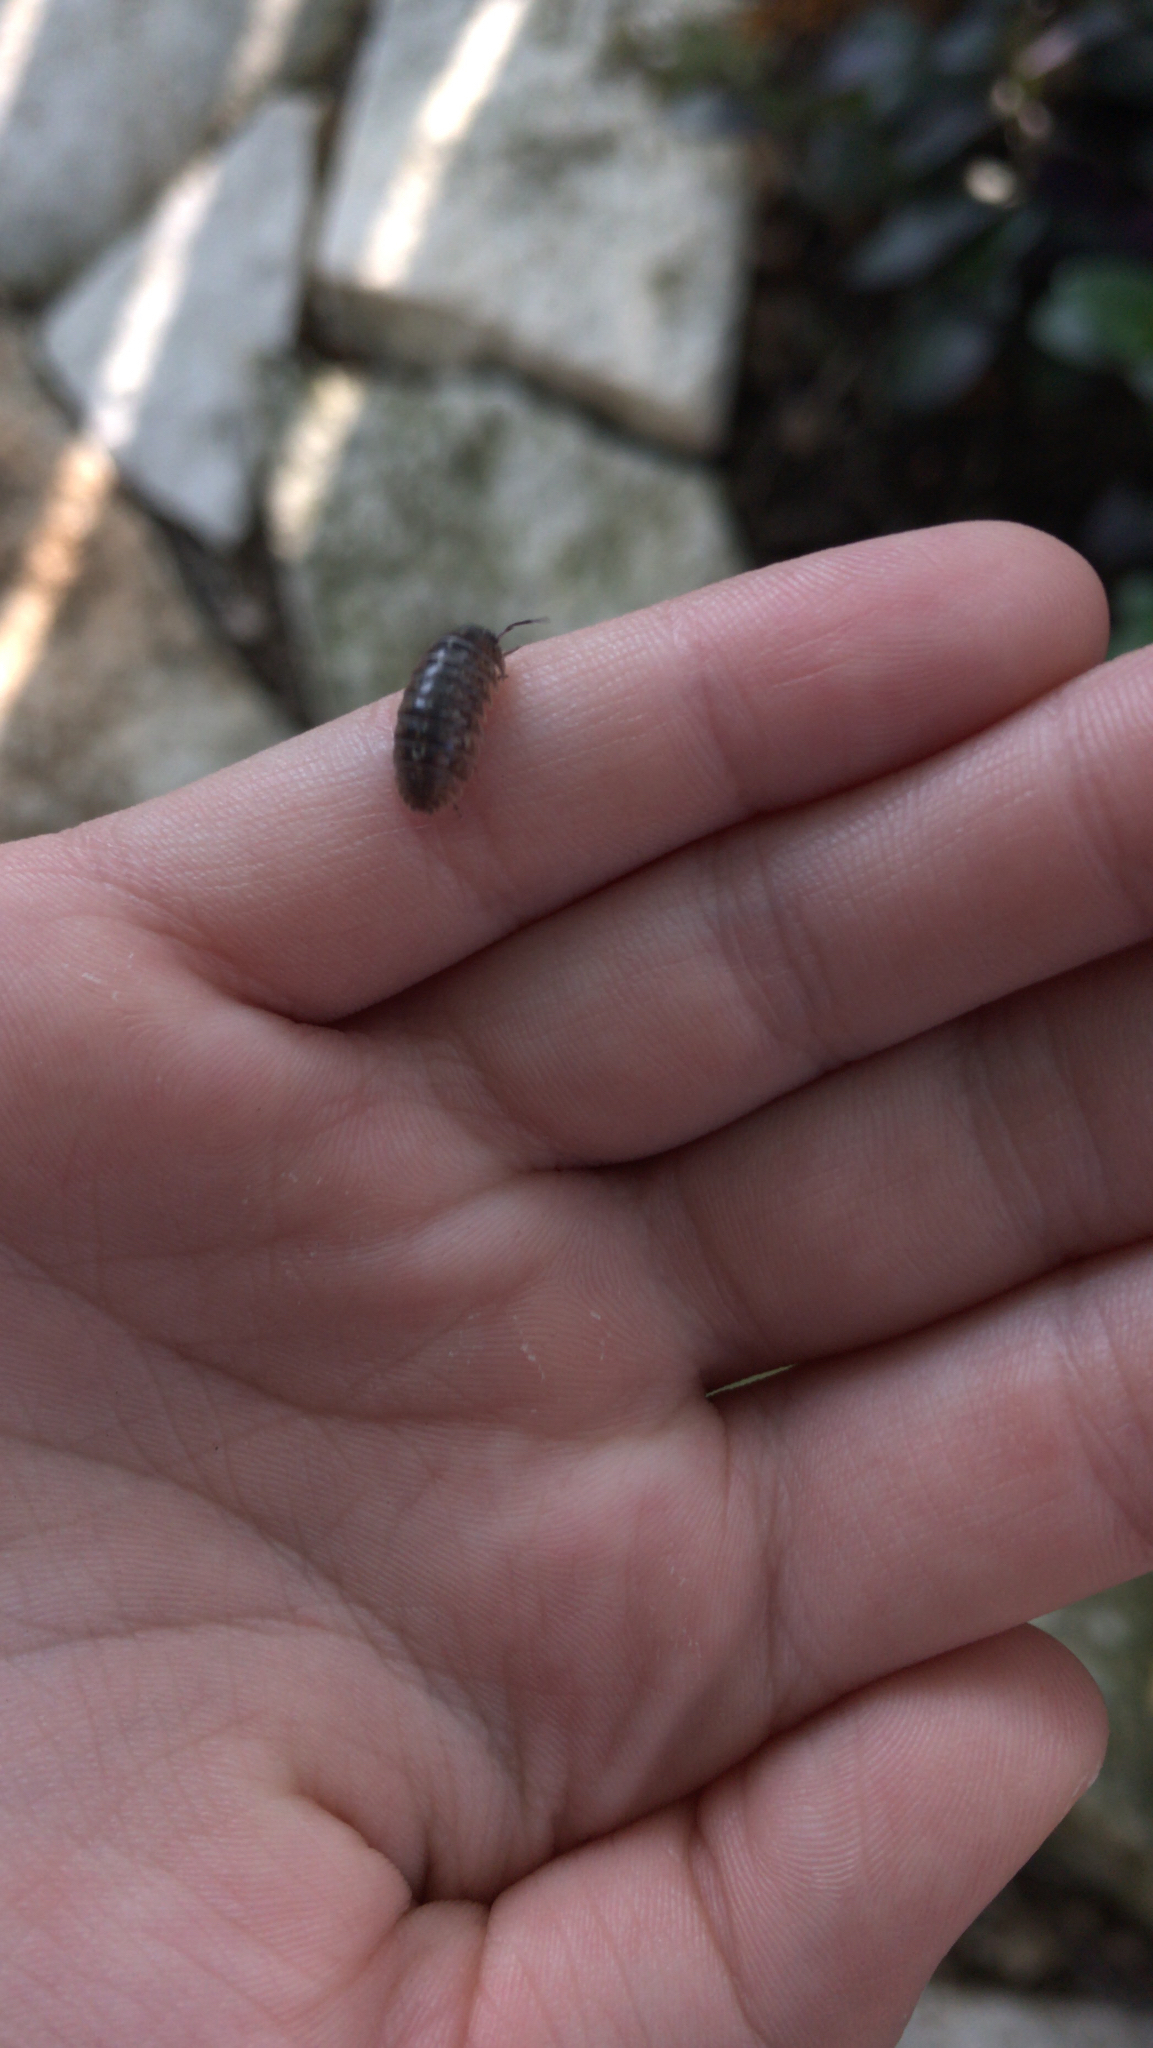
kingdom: Animalia
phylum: Arthropoda
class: Malacostraca
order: Isopoda
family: Armadillidiidae
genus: Armadillidium
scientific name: Armadillidium vulgare
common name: Common pill woodlouse
